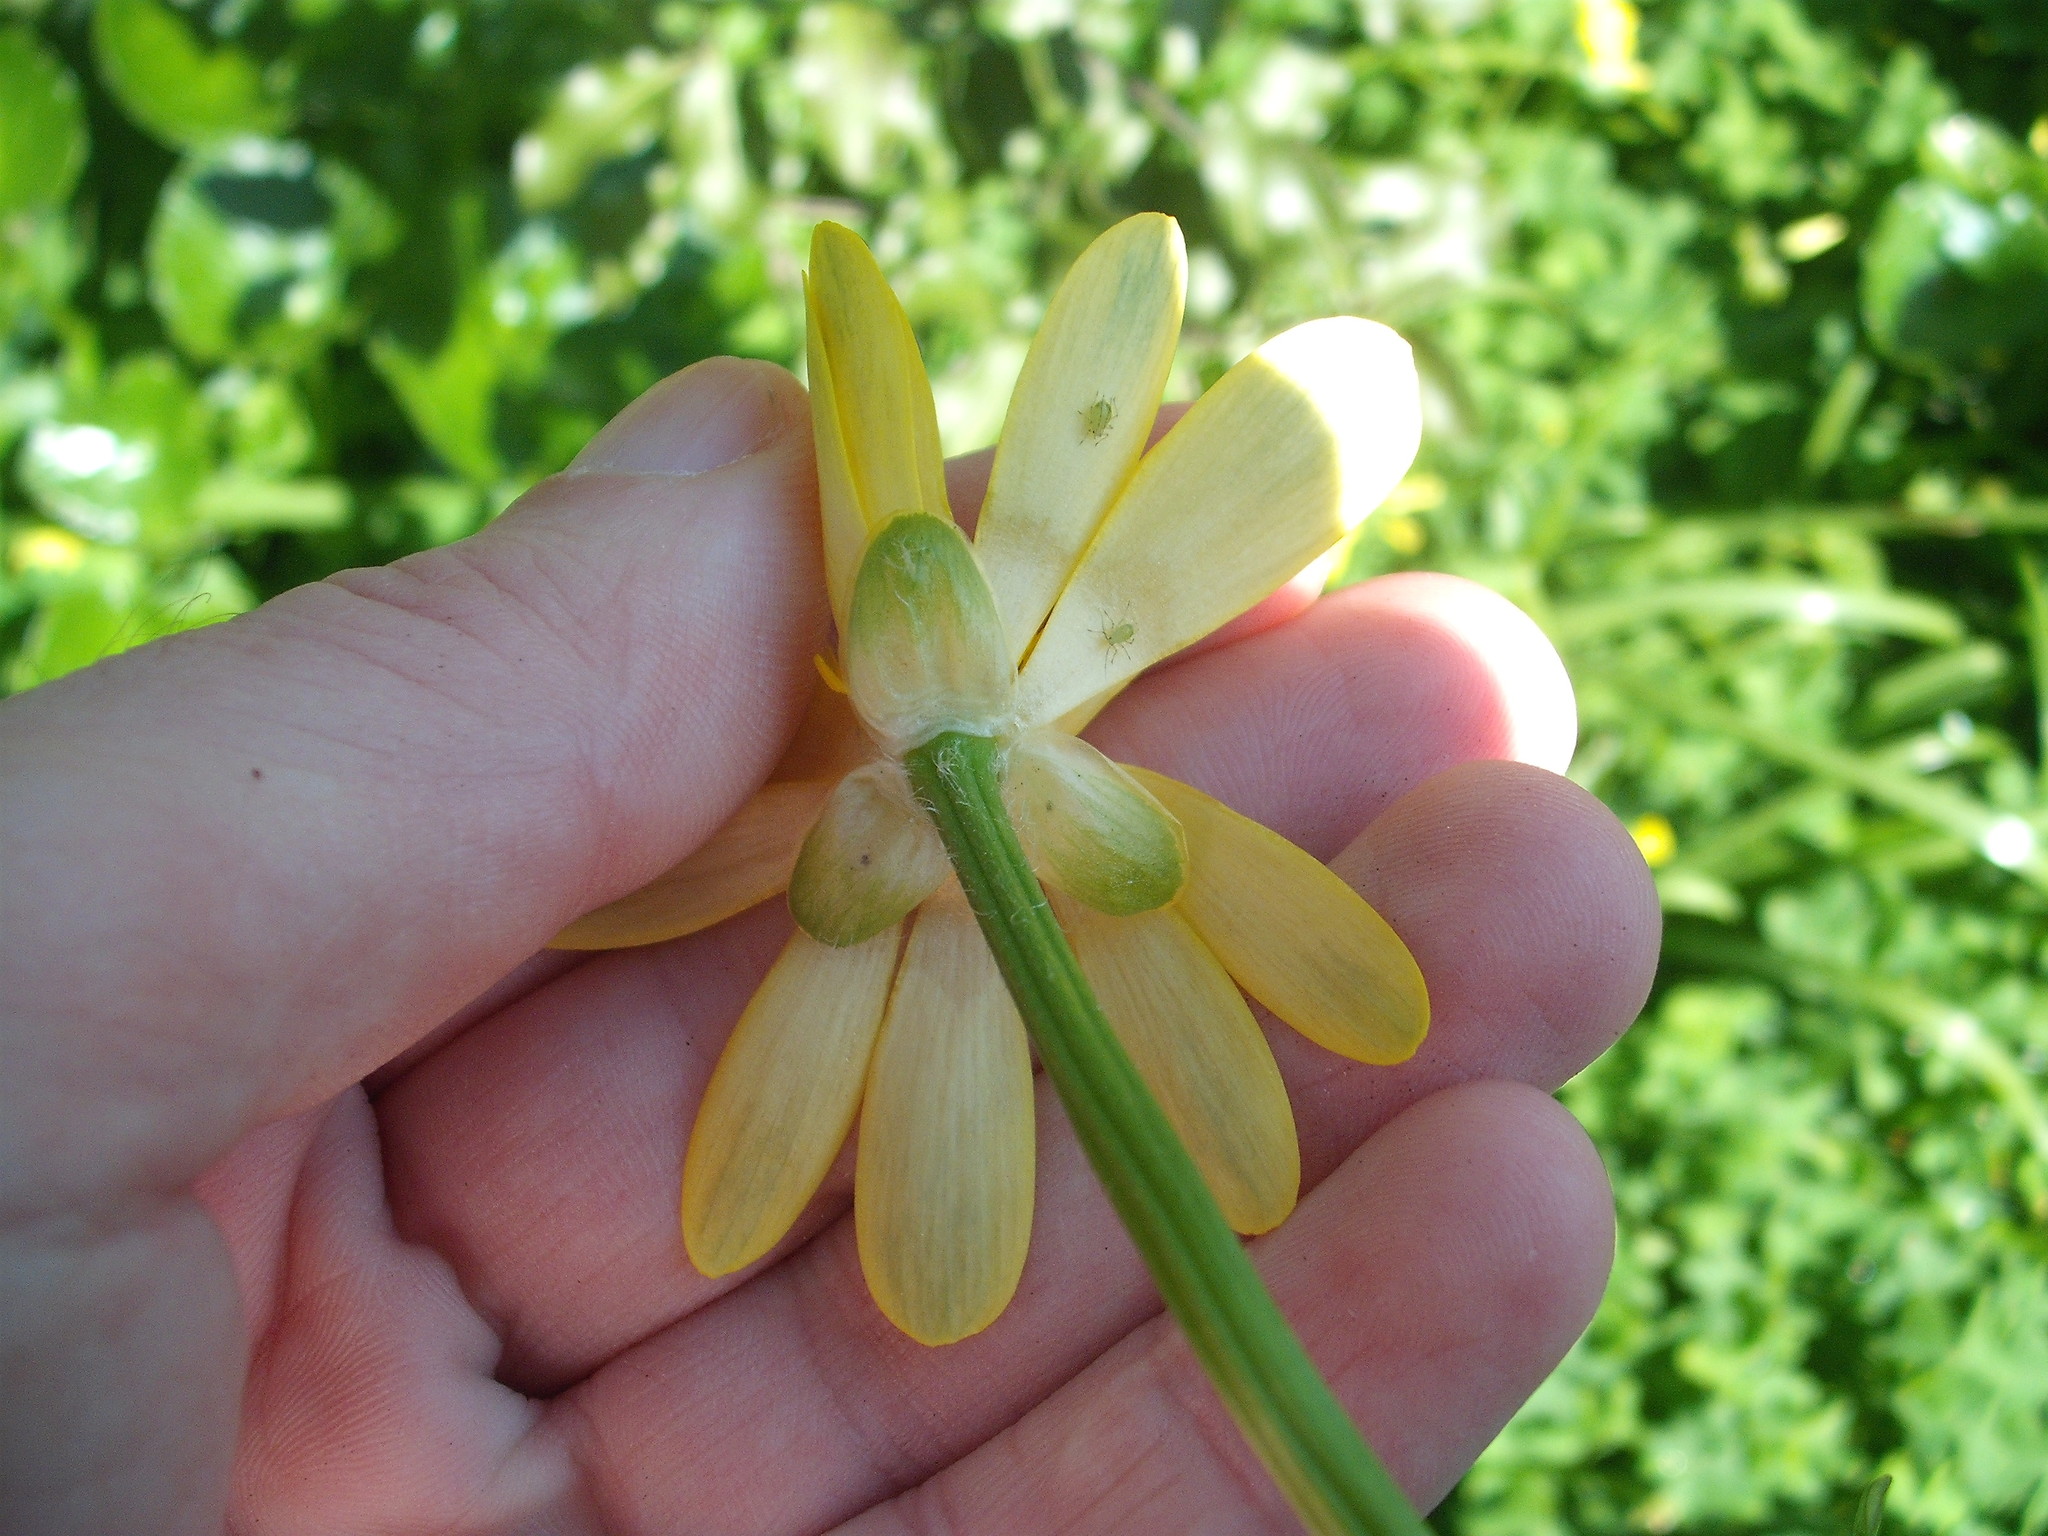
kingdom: Plantae
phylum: Tracheophyta
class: Magnoliopsida
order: Ranunculales
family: Ranunculaceae
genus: Ficaria
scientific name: Ficaria verna
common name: Lesser celandine
